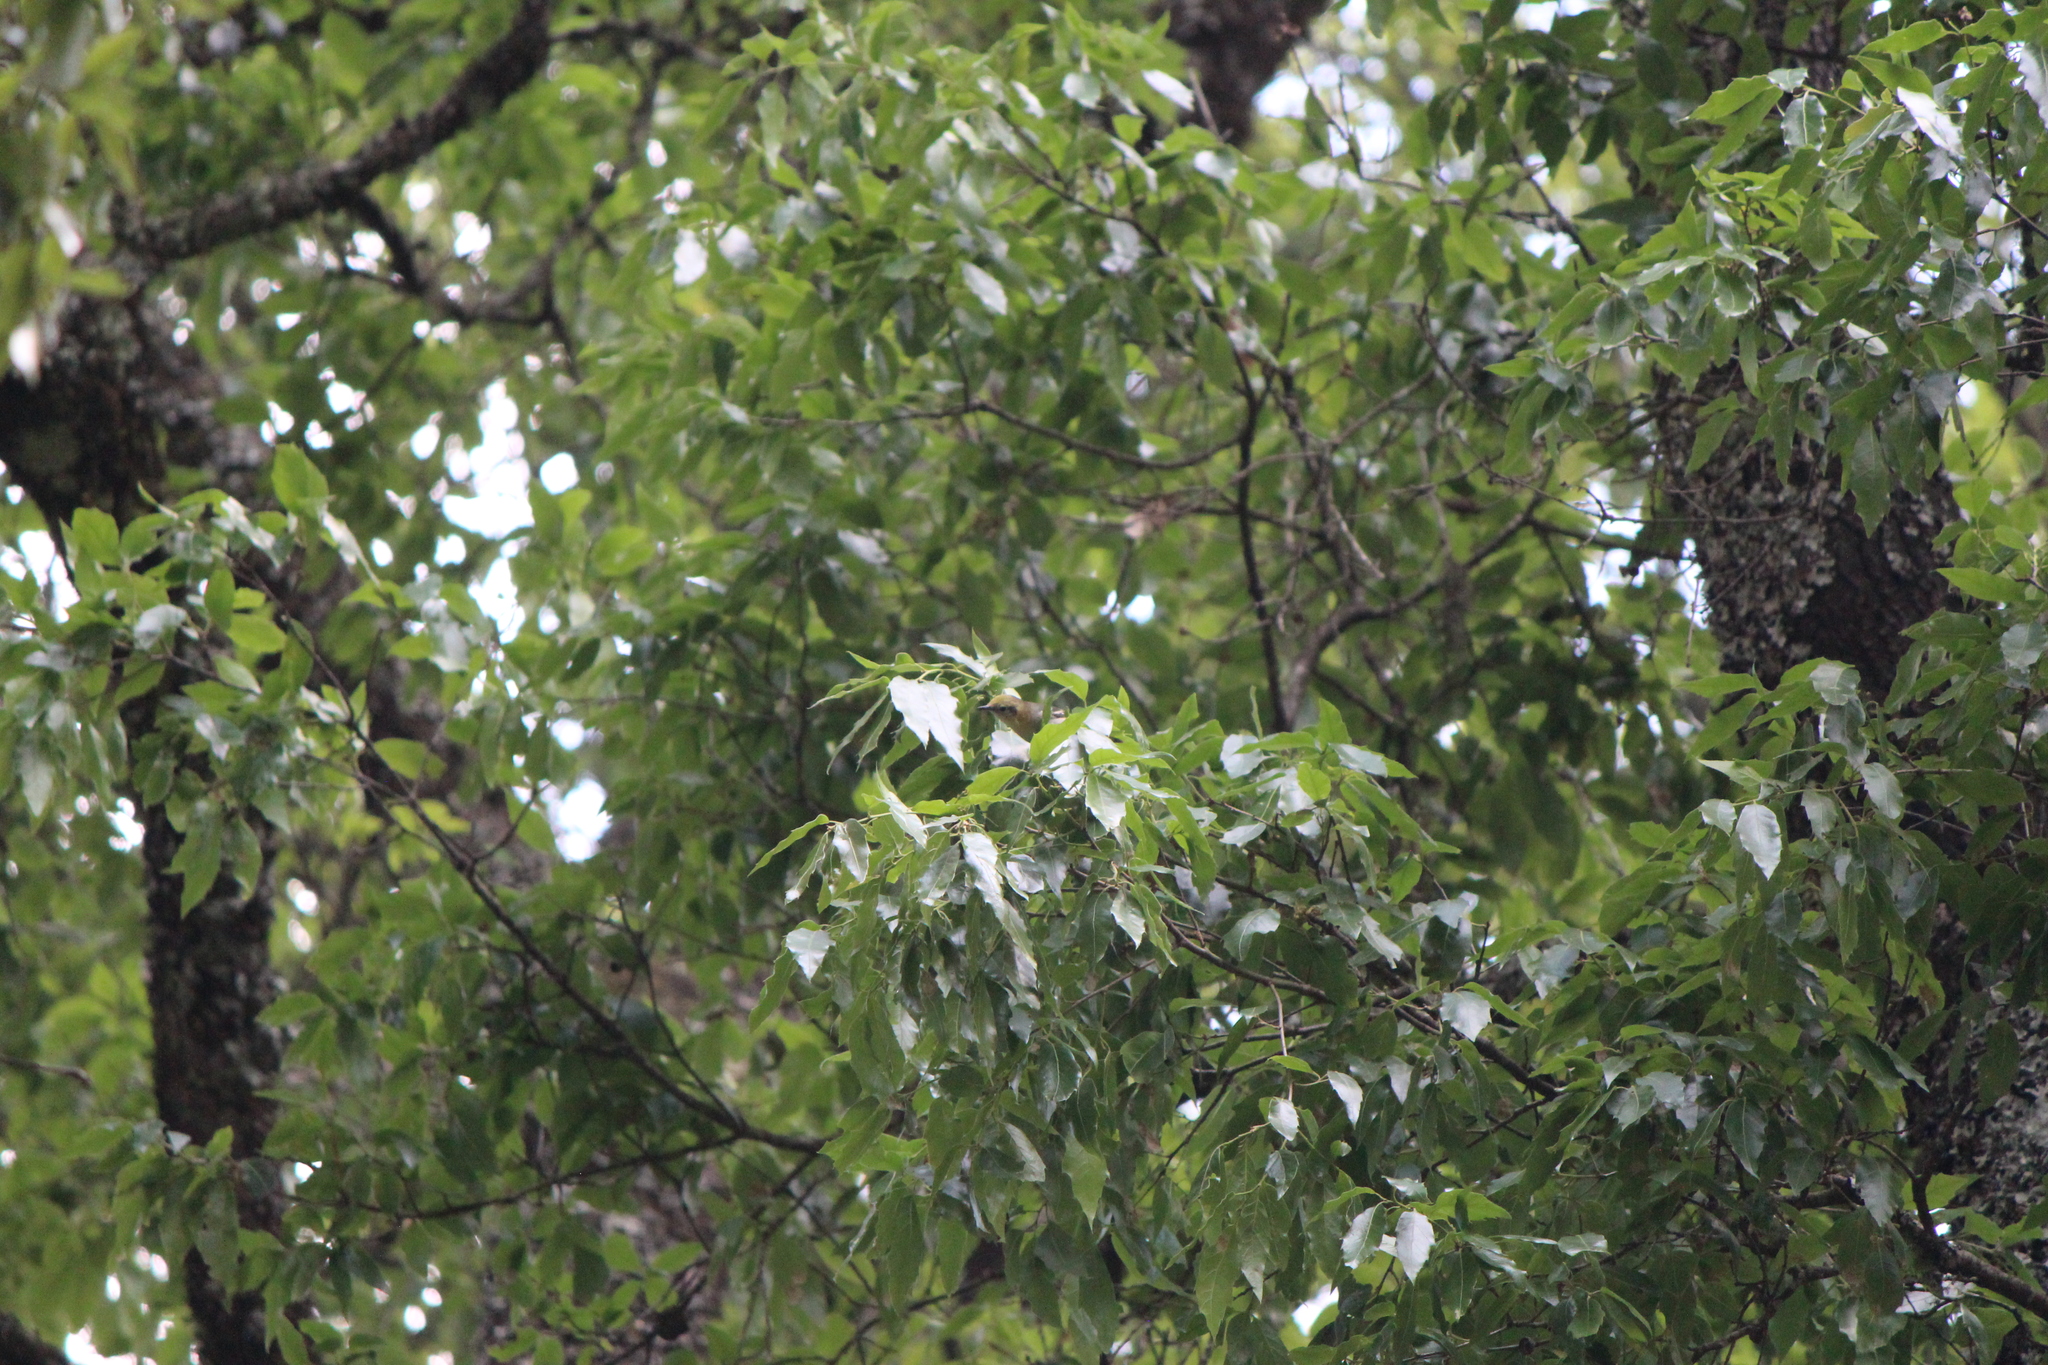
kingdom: Animalia
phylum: Chordata
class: Aves
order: Passeriformes
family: Peucedramidae
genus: Peucedramus
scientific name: Peucedramus taeniatus
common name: Olive warbler
